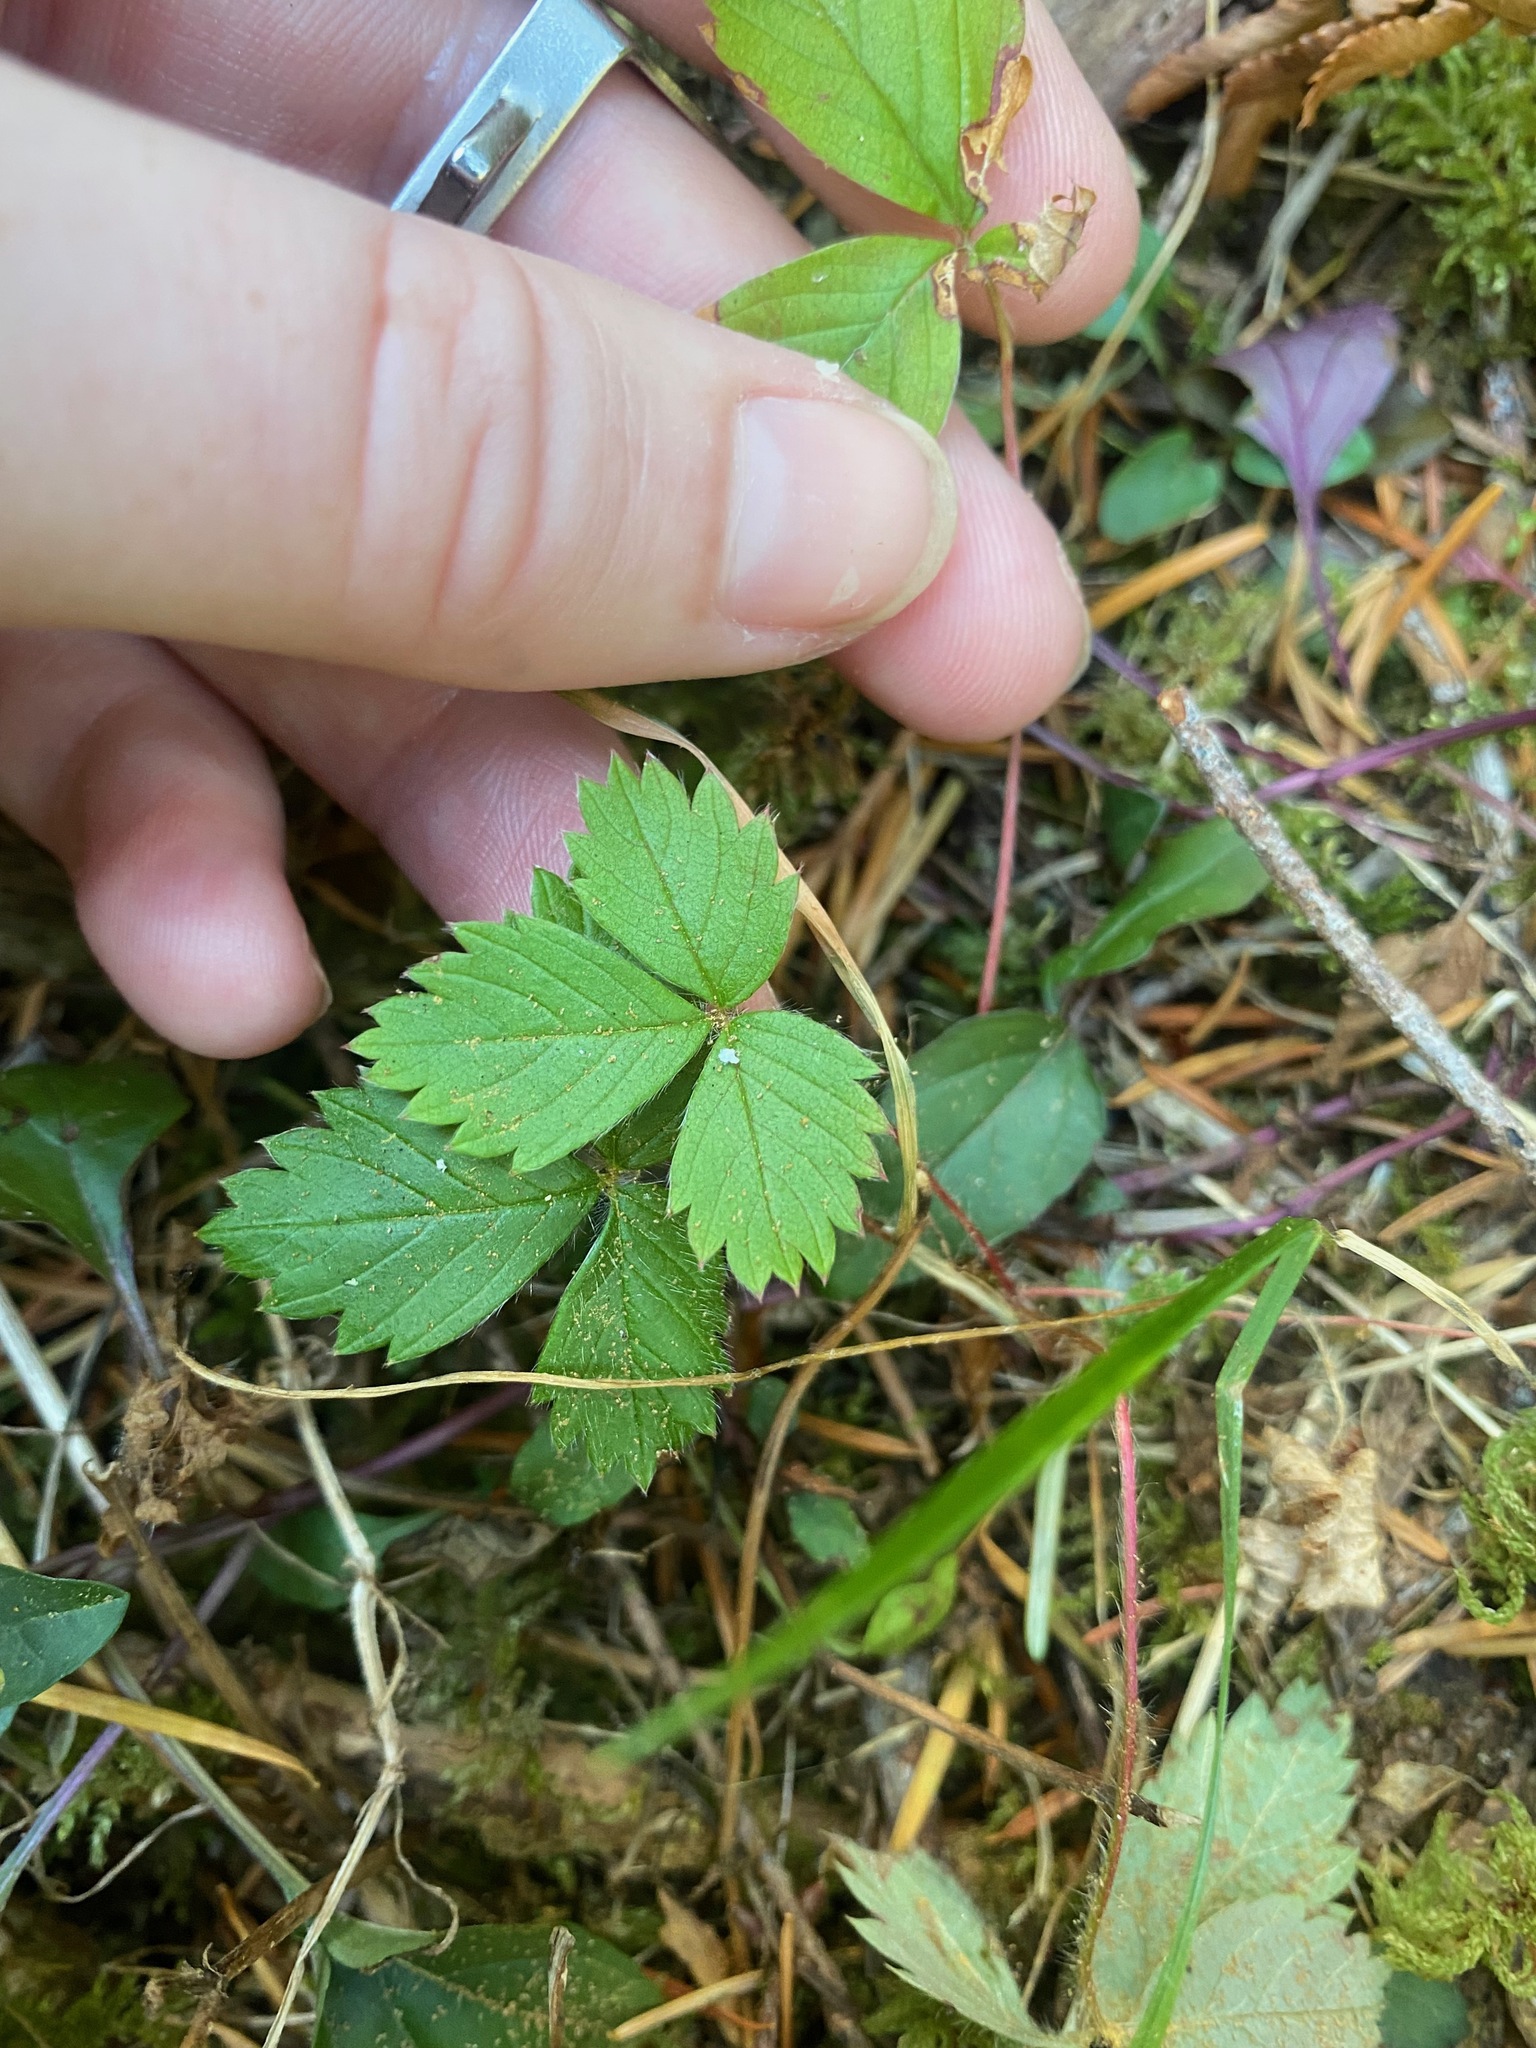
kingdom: Plantae
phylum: Tracheophyta
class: Magnoliopsida
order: Rosales
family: Rosaceae
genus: Fragaria
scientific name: Fragaria virginiana
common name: Thickleaved wild strawberry
